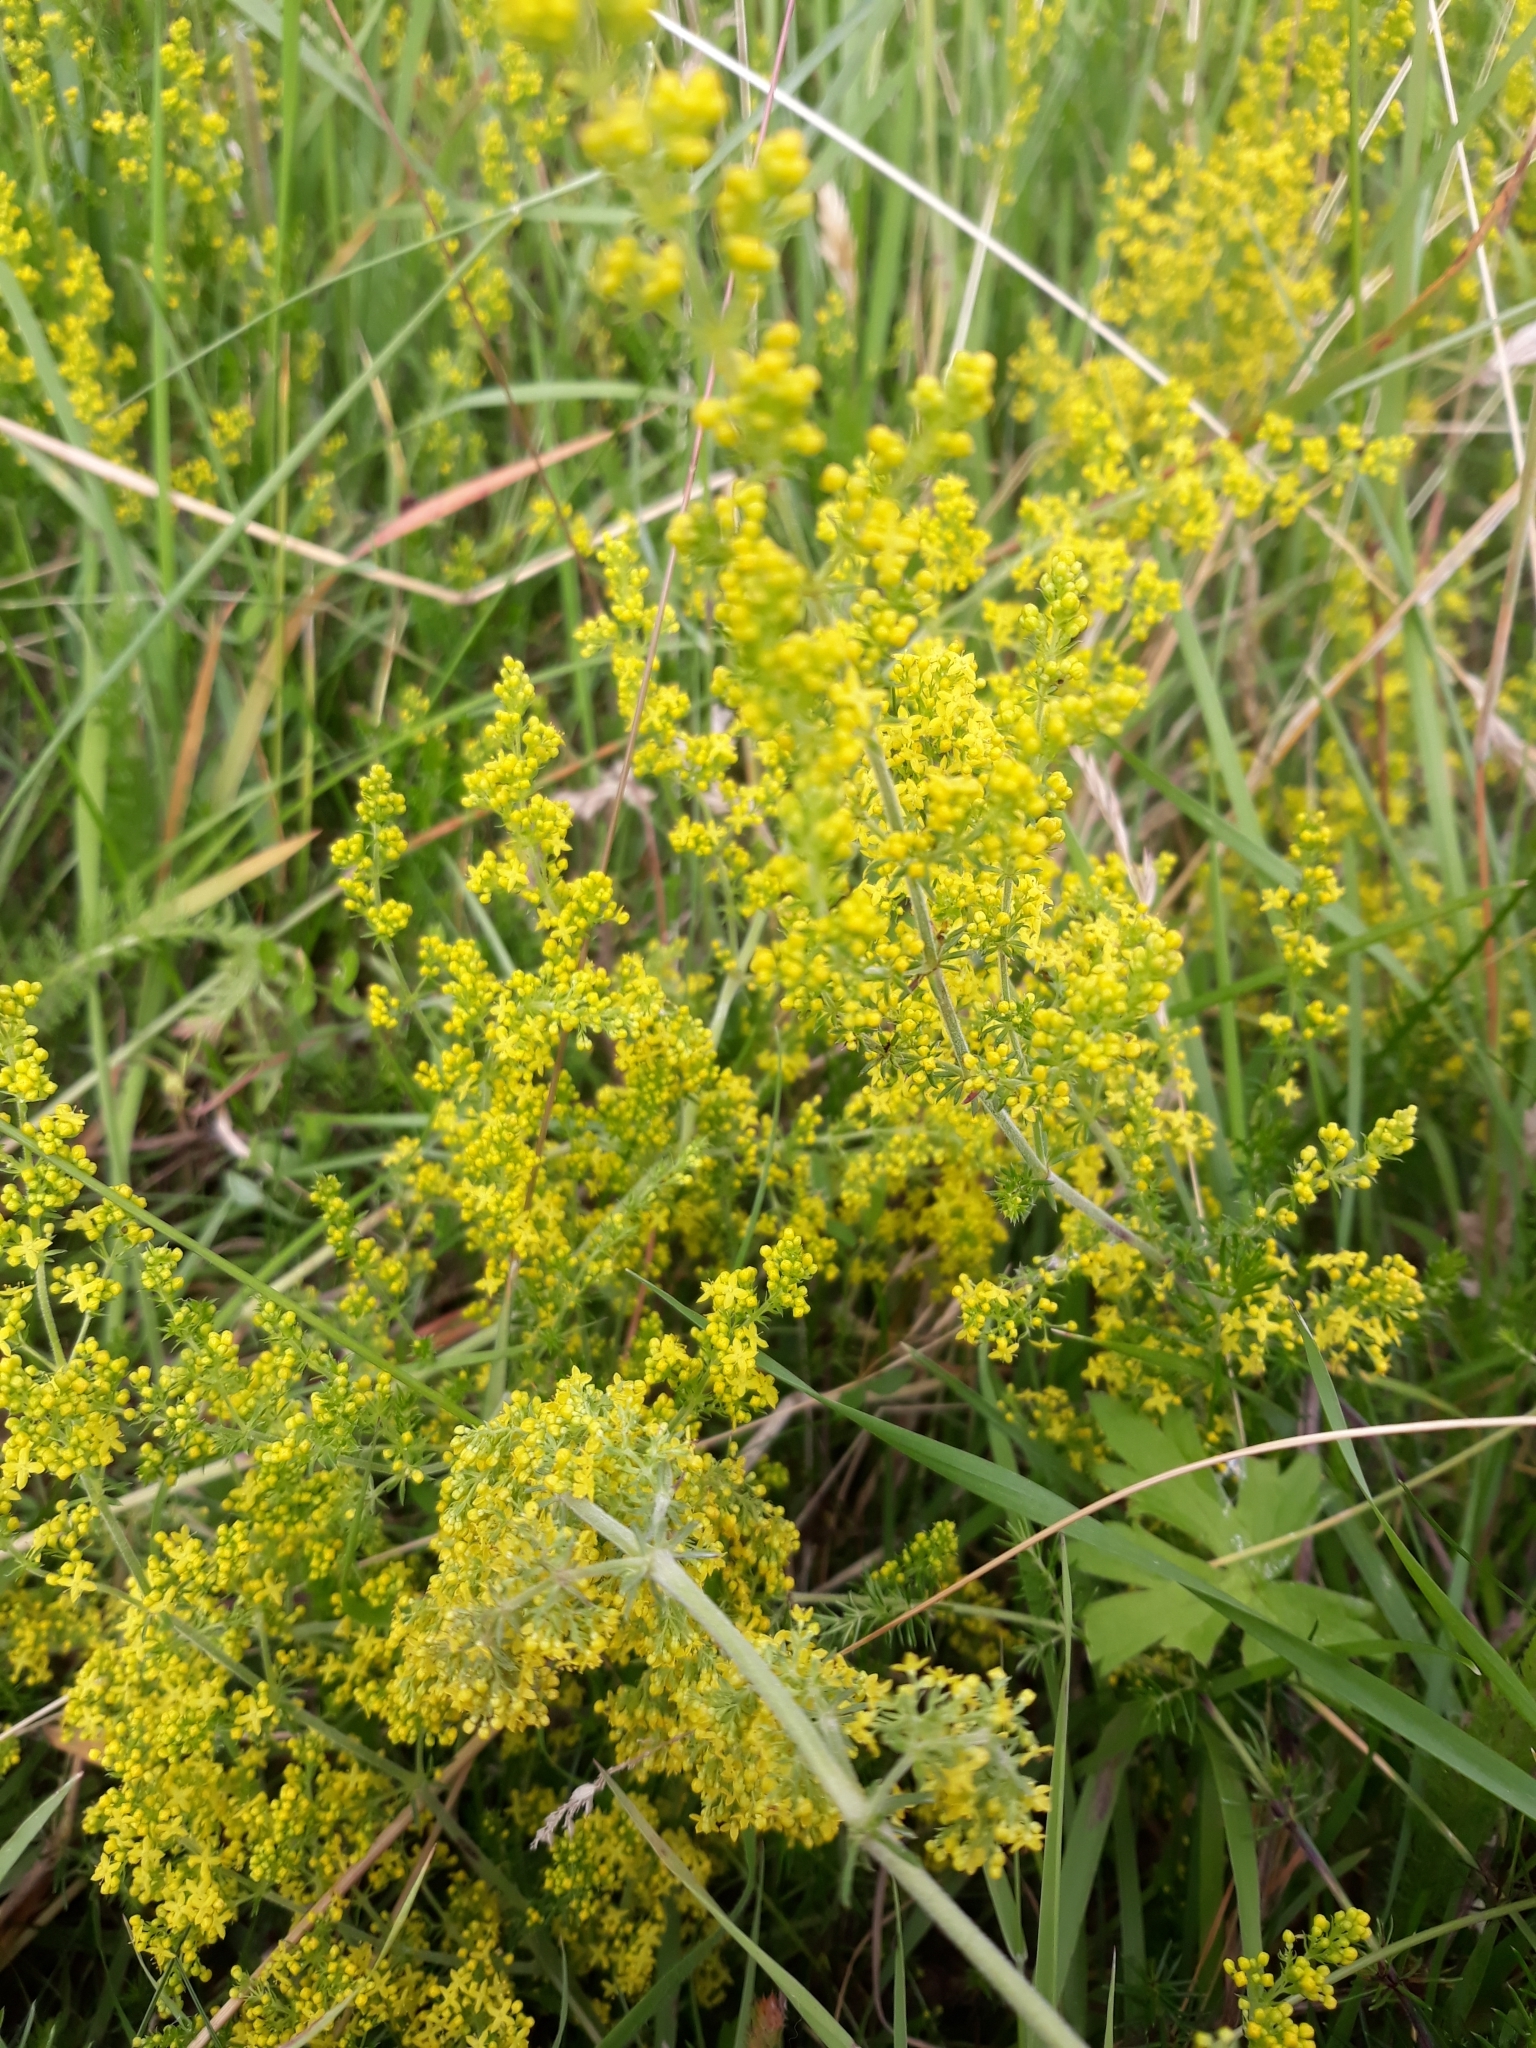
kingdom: Plantae
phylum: Tracheophyta
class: Magnoliopsida
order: Gentianales
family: Rubiaceae
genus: Galium
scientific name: Galium verum
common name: Lady's bedstraw
